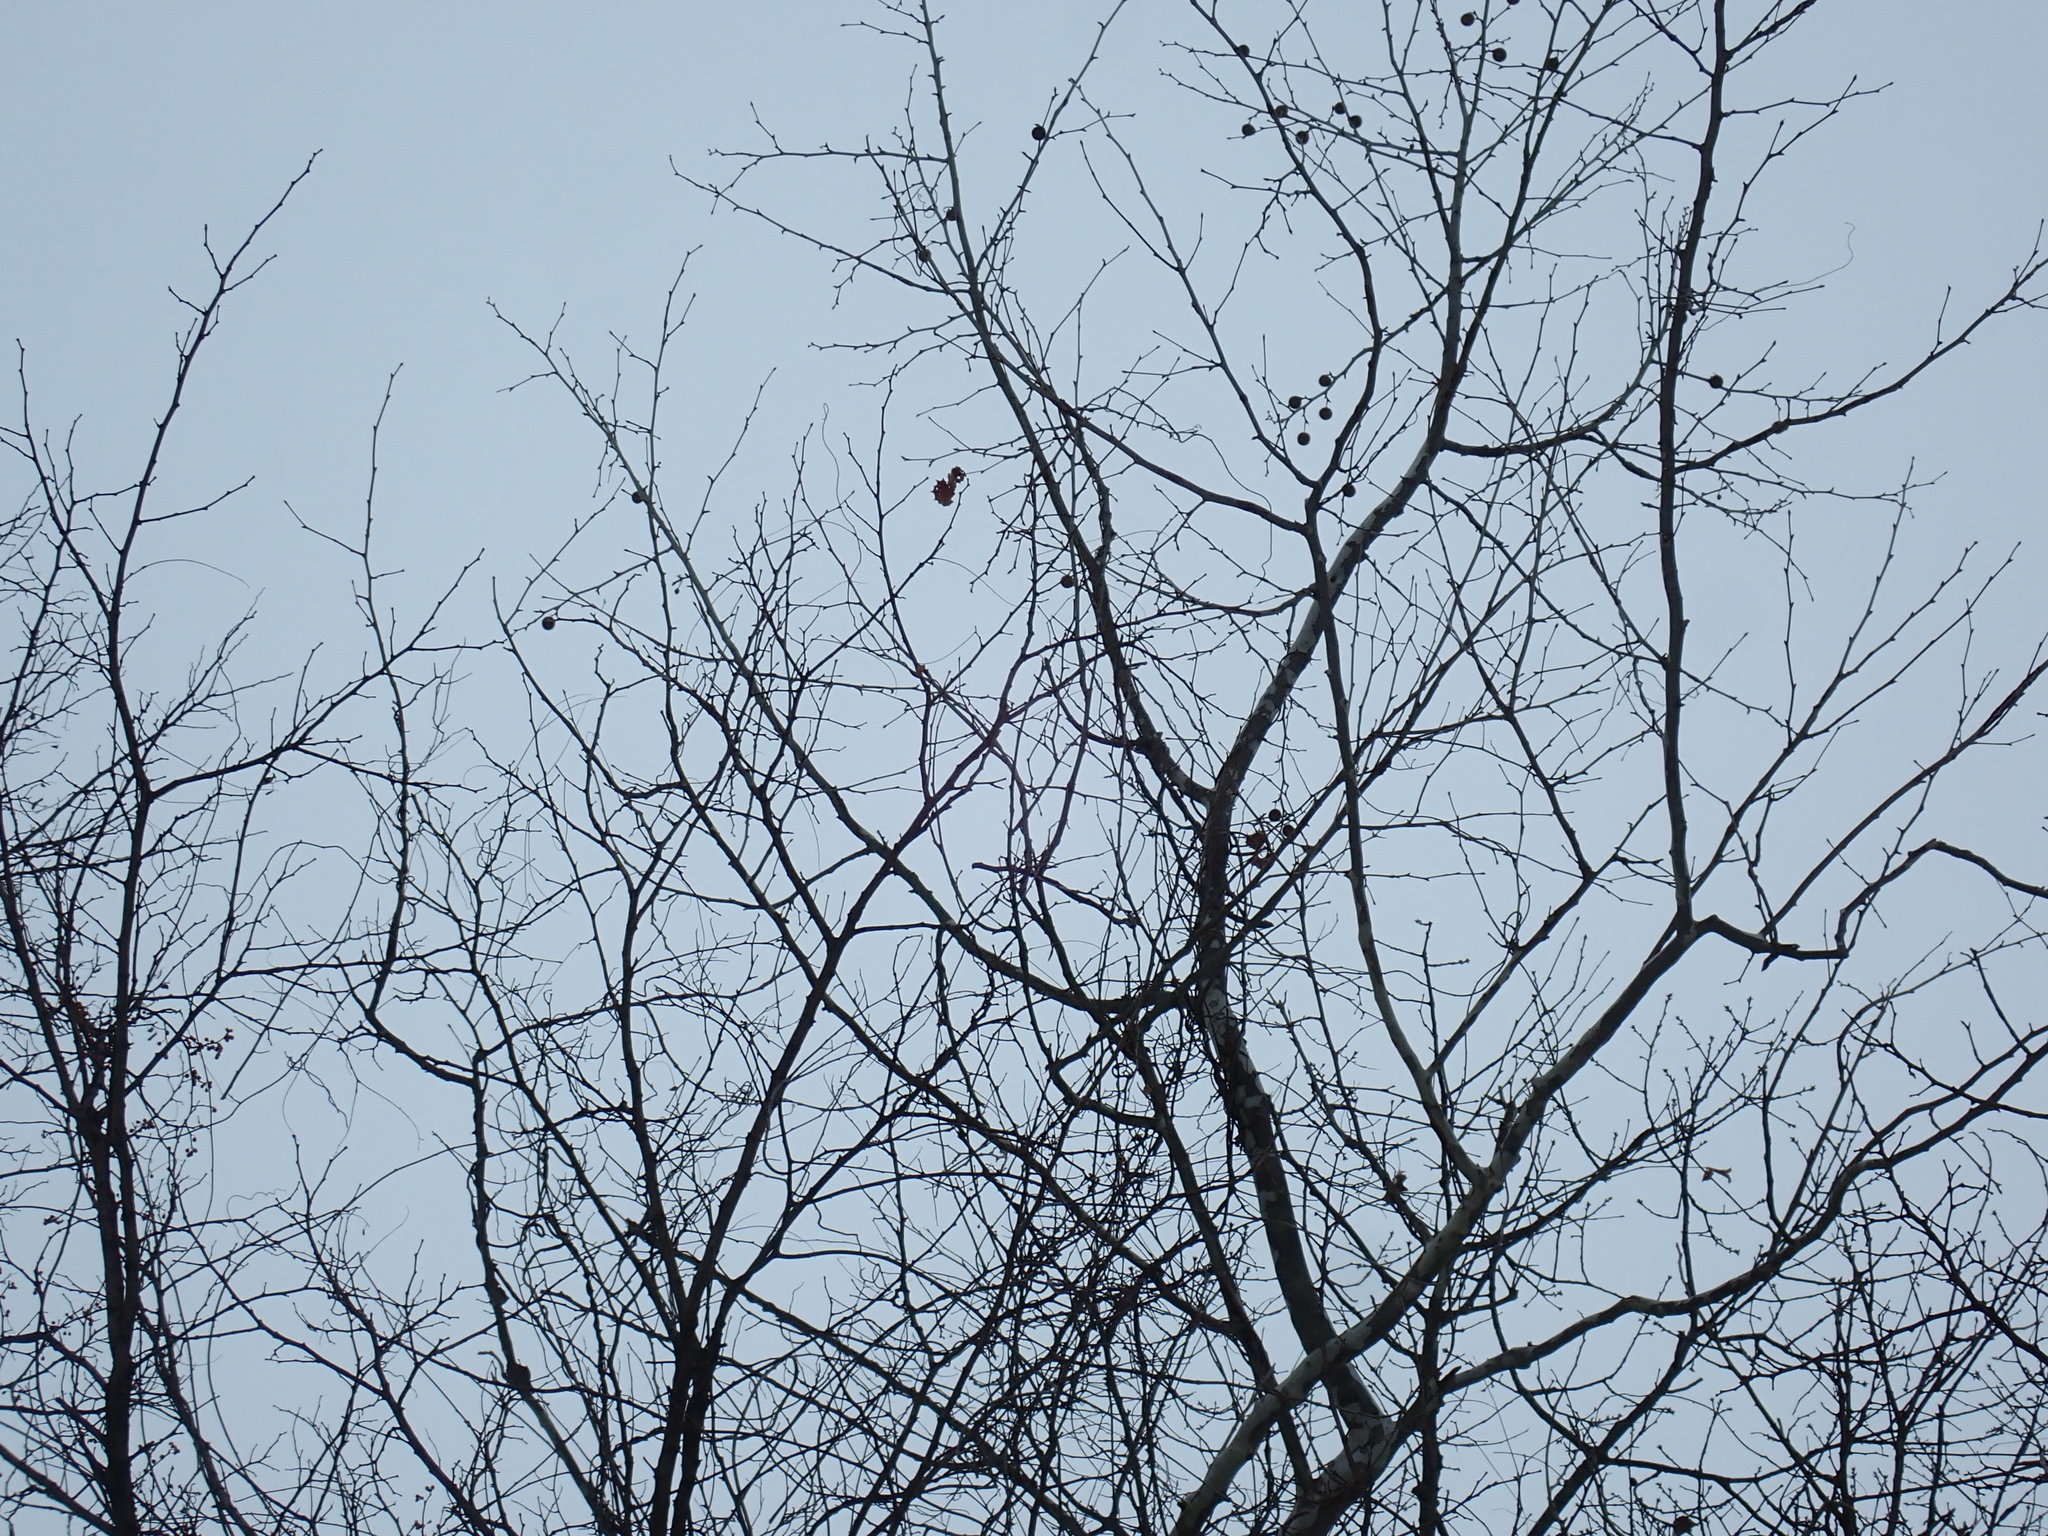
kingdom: Plantae
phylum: Tracheophyta
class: Magnoliopsida
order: Proteales
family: Platanaceae
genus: Platanus
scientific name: Platanus occidentalis
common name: American sycamore
